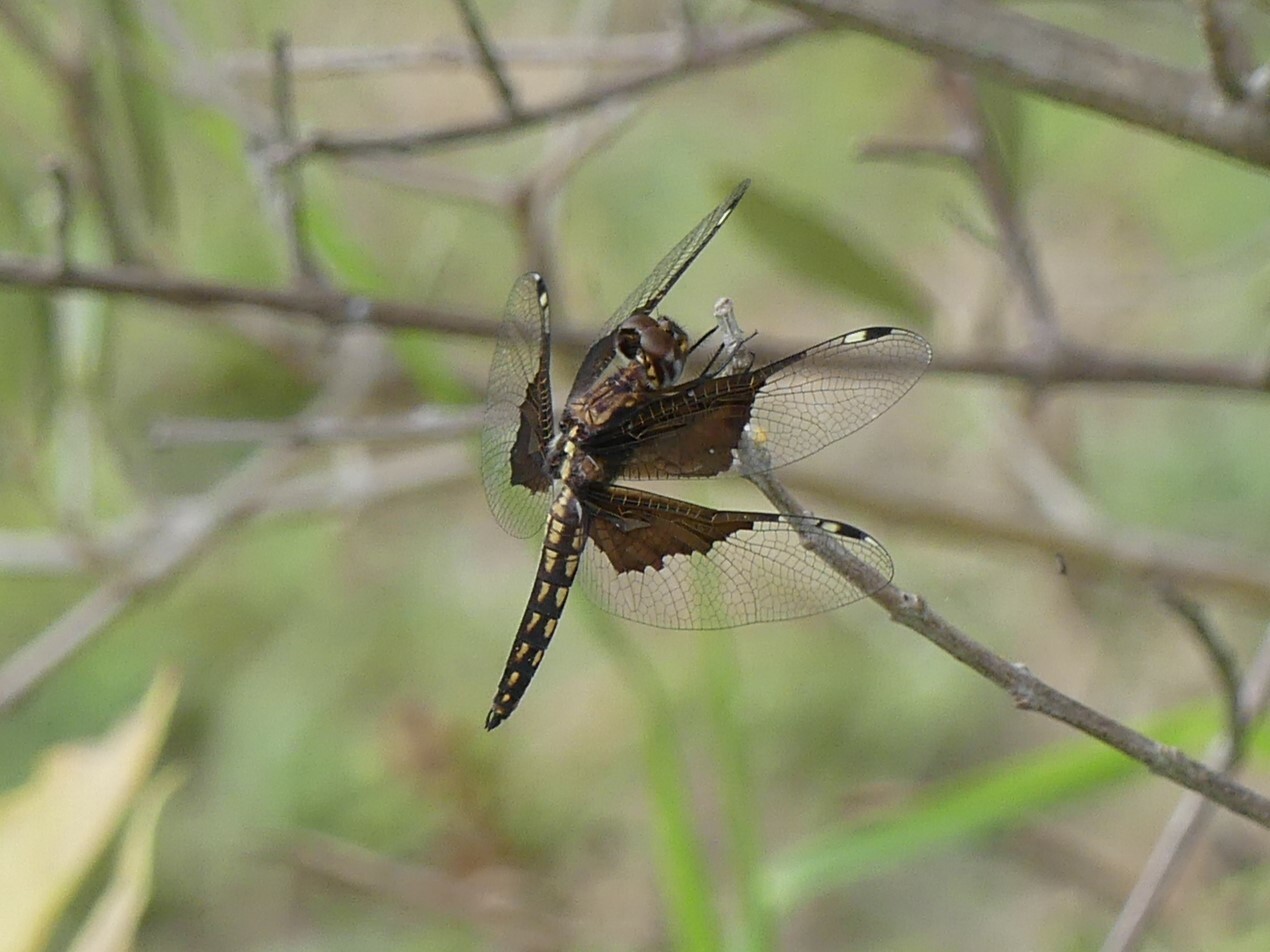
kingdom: Animalia
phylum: Arthropoda
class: Insecta
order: Odonata
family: Libellulidae
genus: Palpopleura
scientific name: Palpopleura vestita
